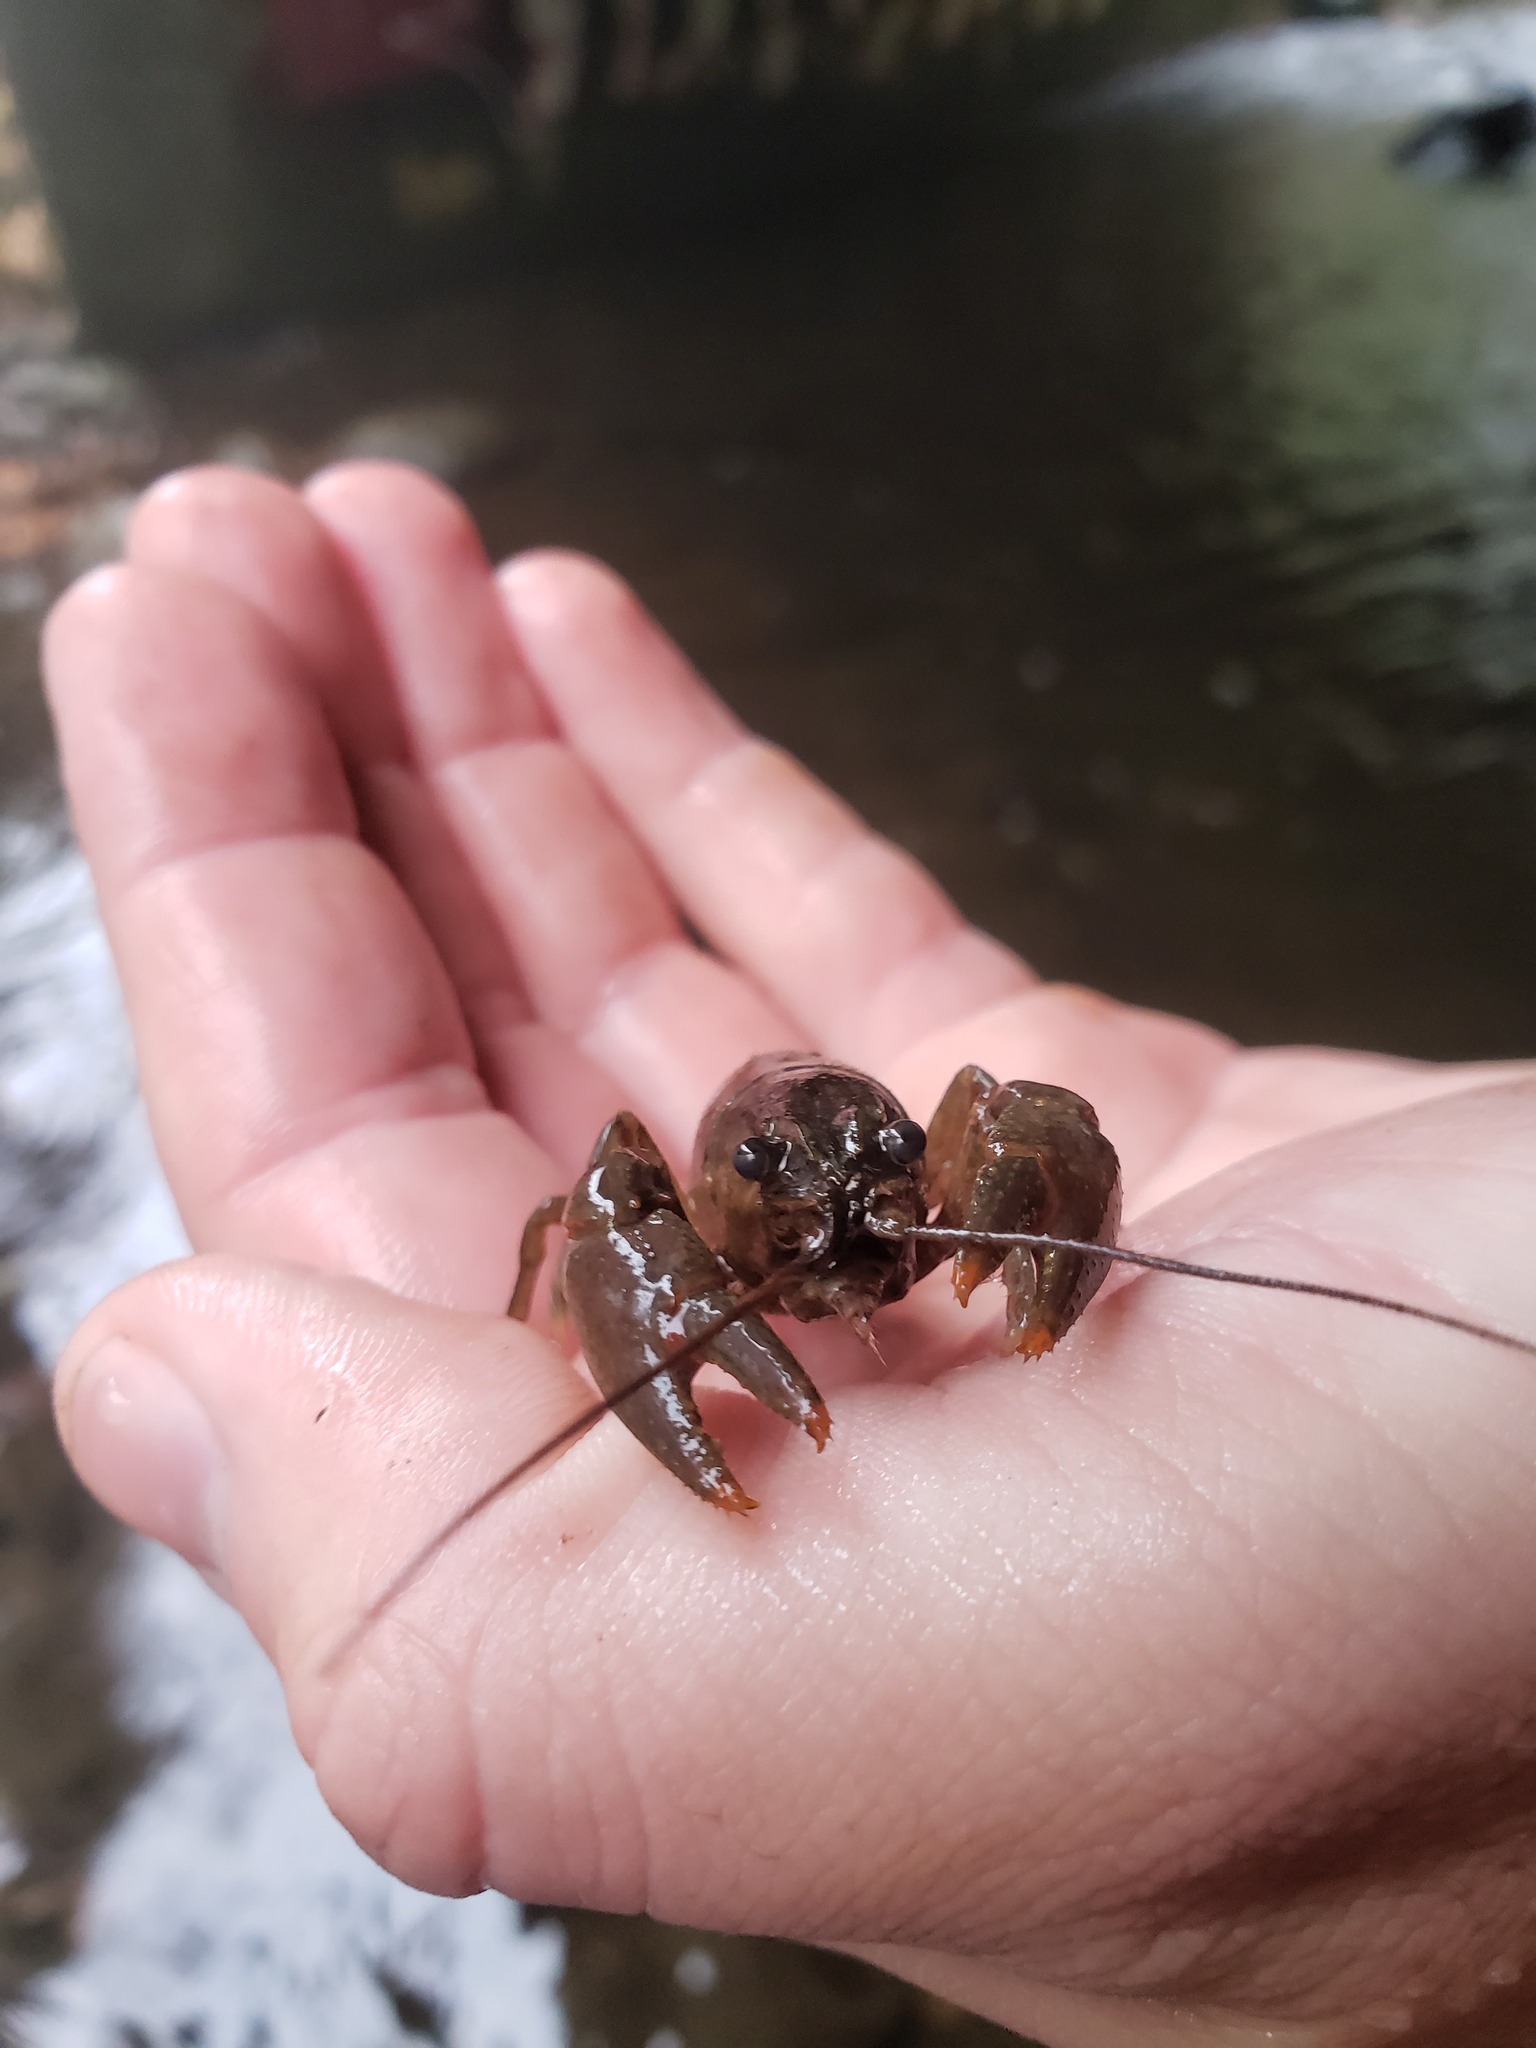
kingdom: Animalia
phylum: Arthropoda
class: Malacostraca
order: Decapoda
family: Cambaridae
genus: Faxonius
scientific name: Faxonius propinquus
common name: Northern clearwater crayfish
